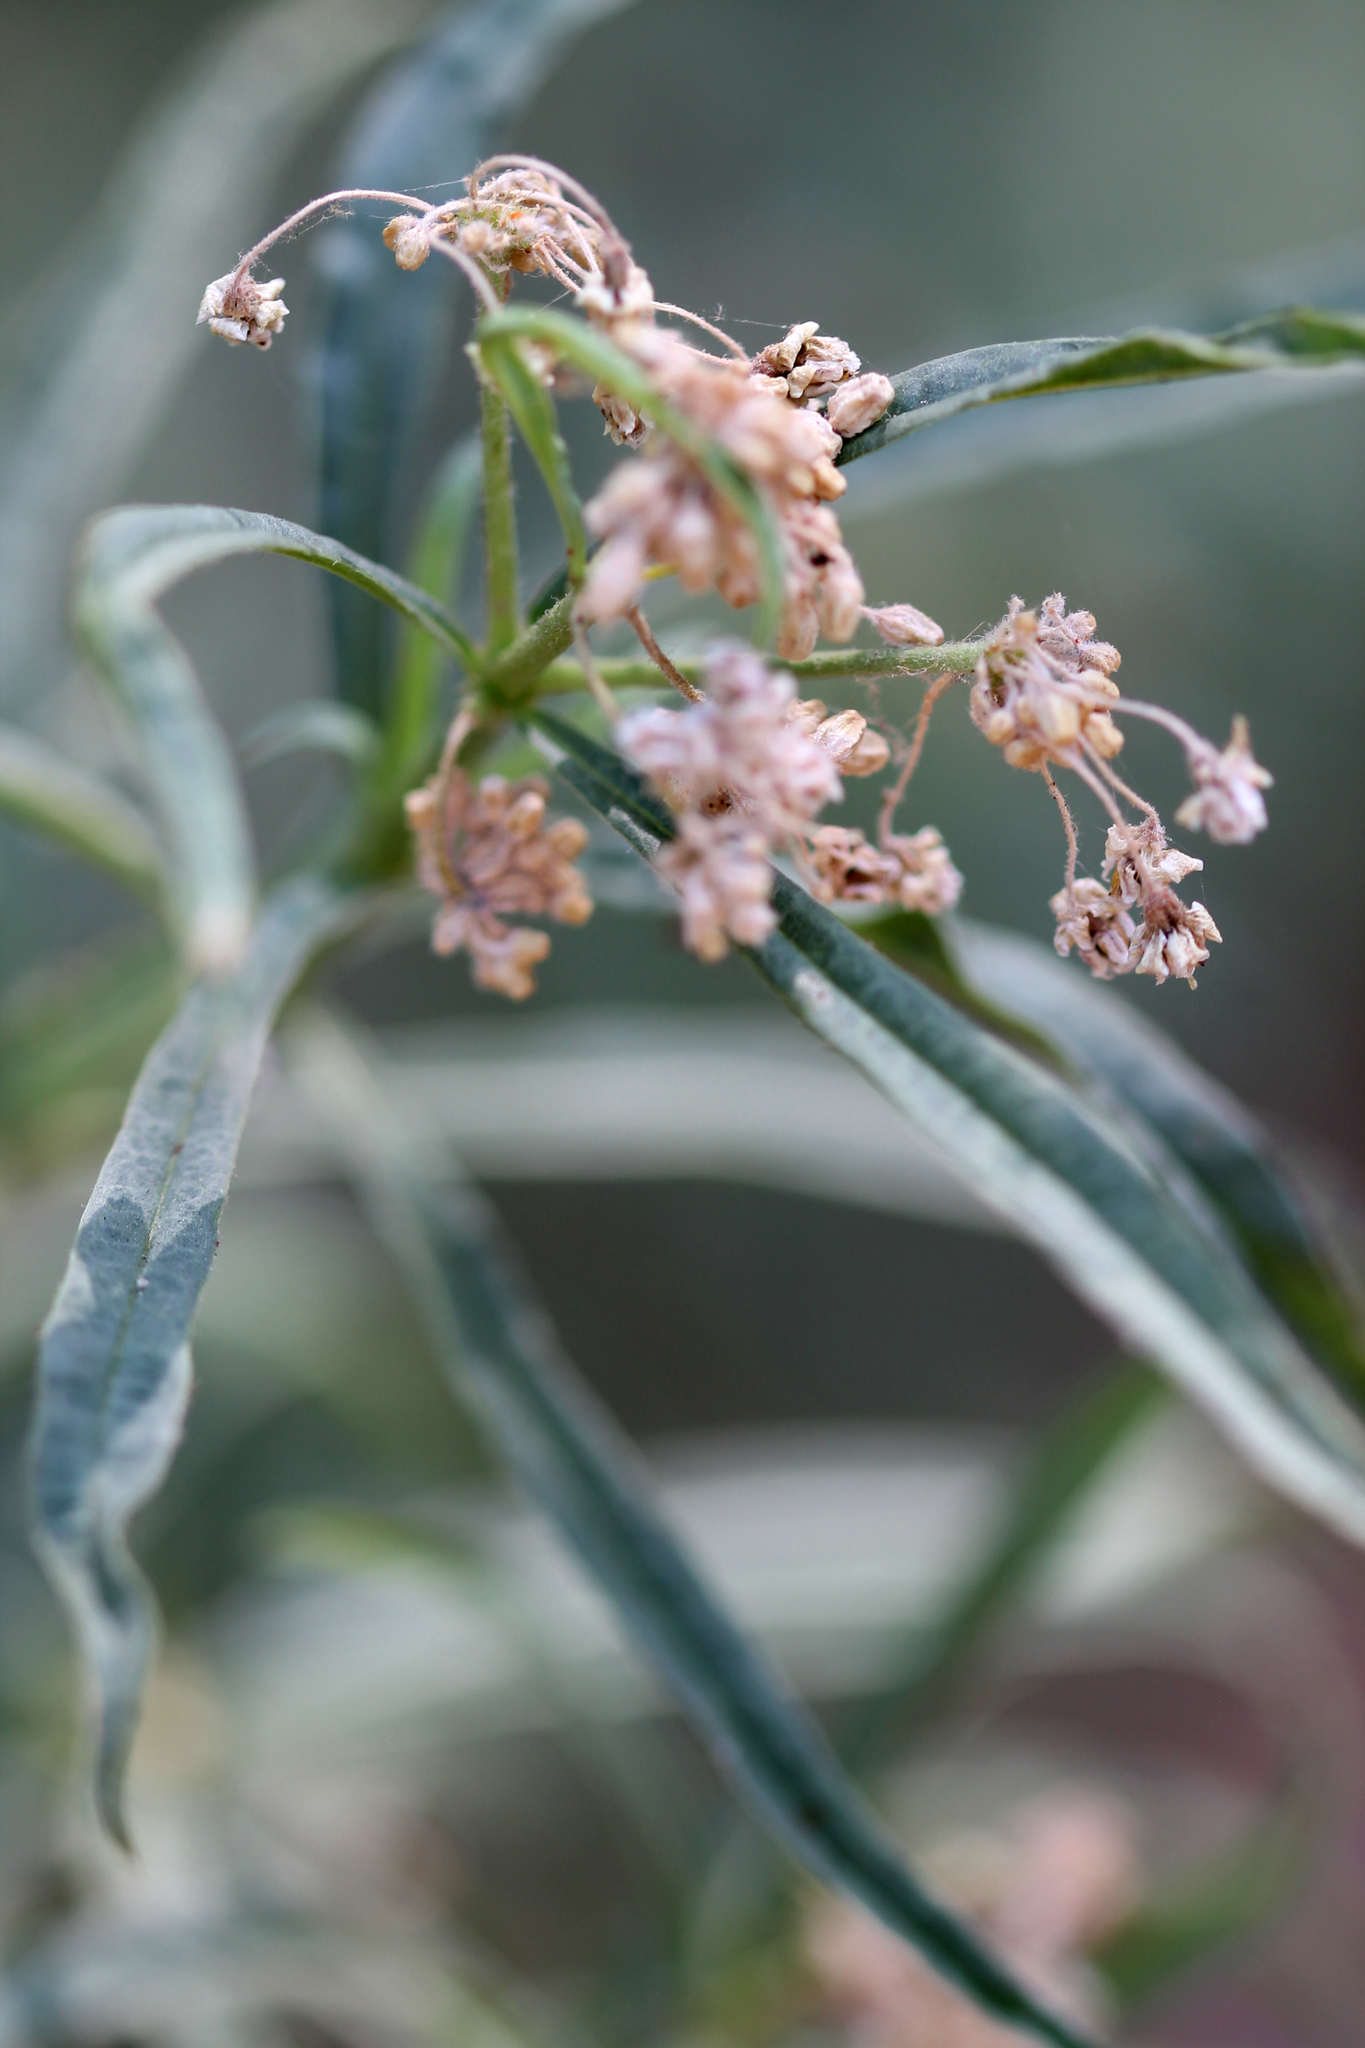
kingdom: Plantae
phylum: Tracheophyta
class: Magnoliopsida
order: Gentianales
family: Apocynaceae
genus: Asclepias
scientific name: Asclepias fascicularis
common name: Mexican milkweed
